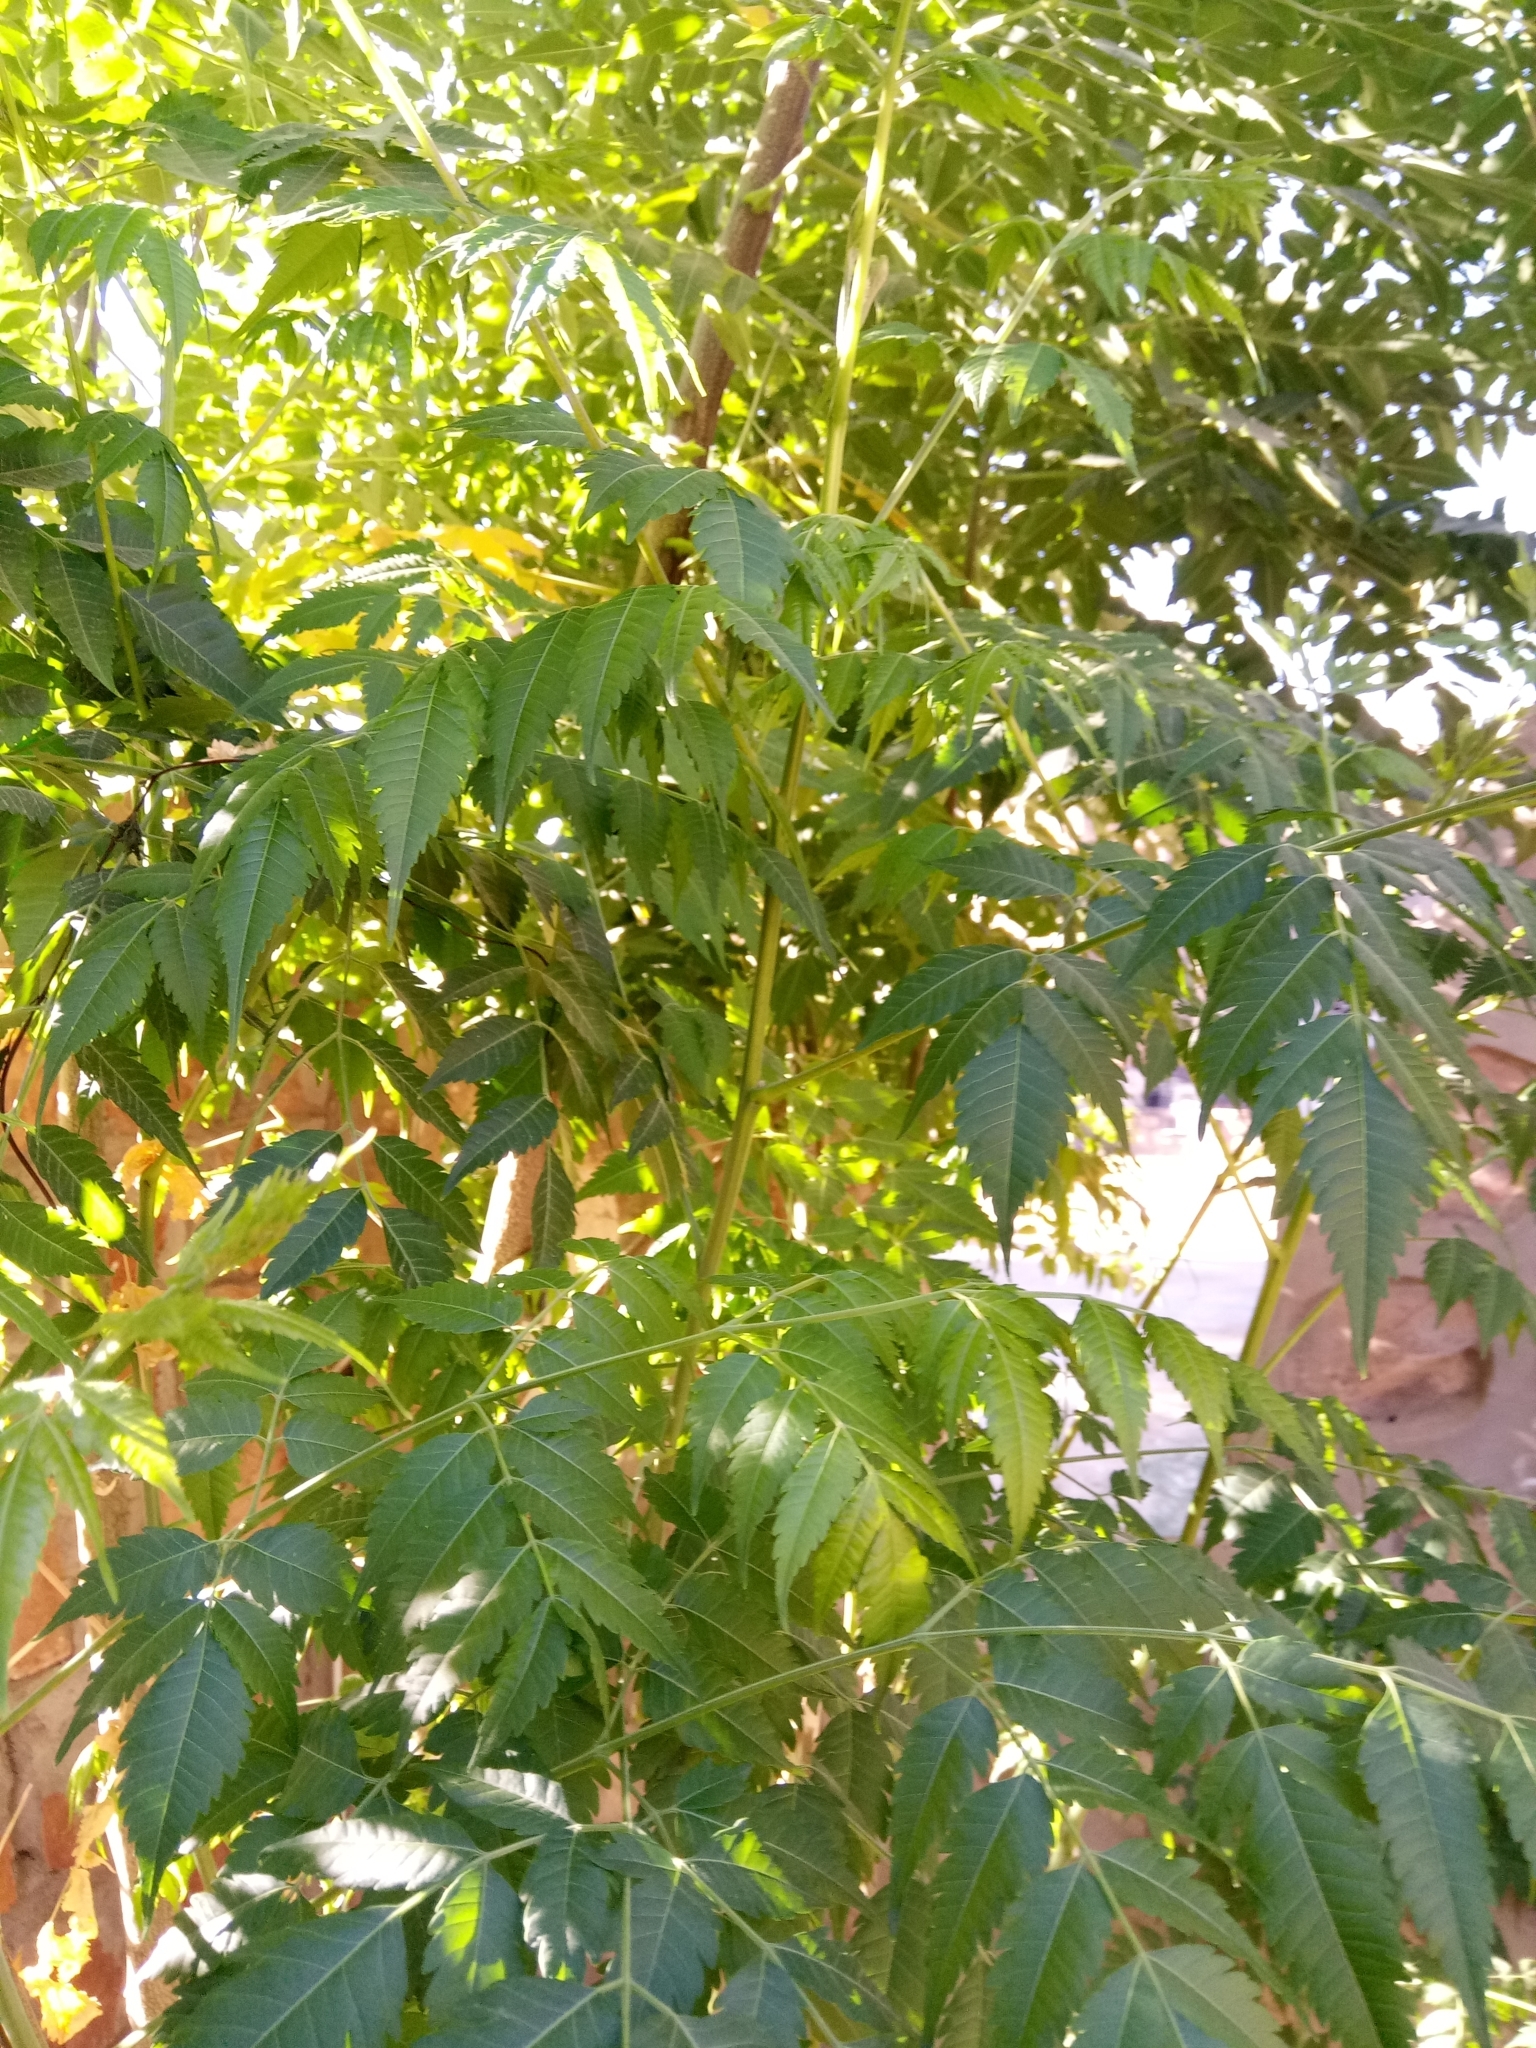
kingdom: Plantae
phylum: Tracheophyta
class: Magnoliopsida
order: Sapindales
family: Meliaceae
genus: Melia
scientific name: Melia azedarach
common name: Chinaberrytree
